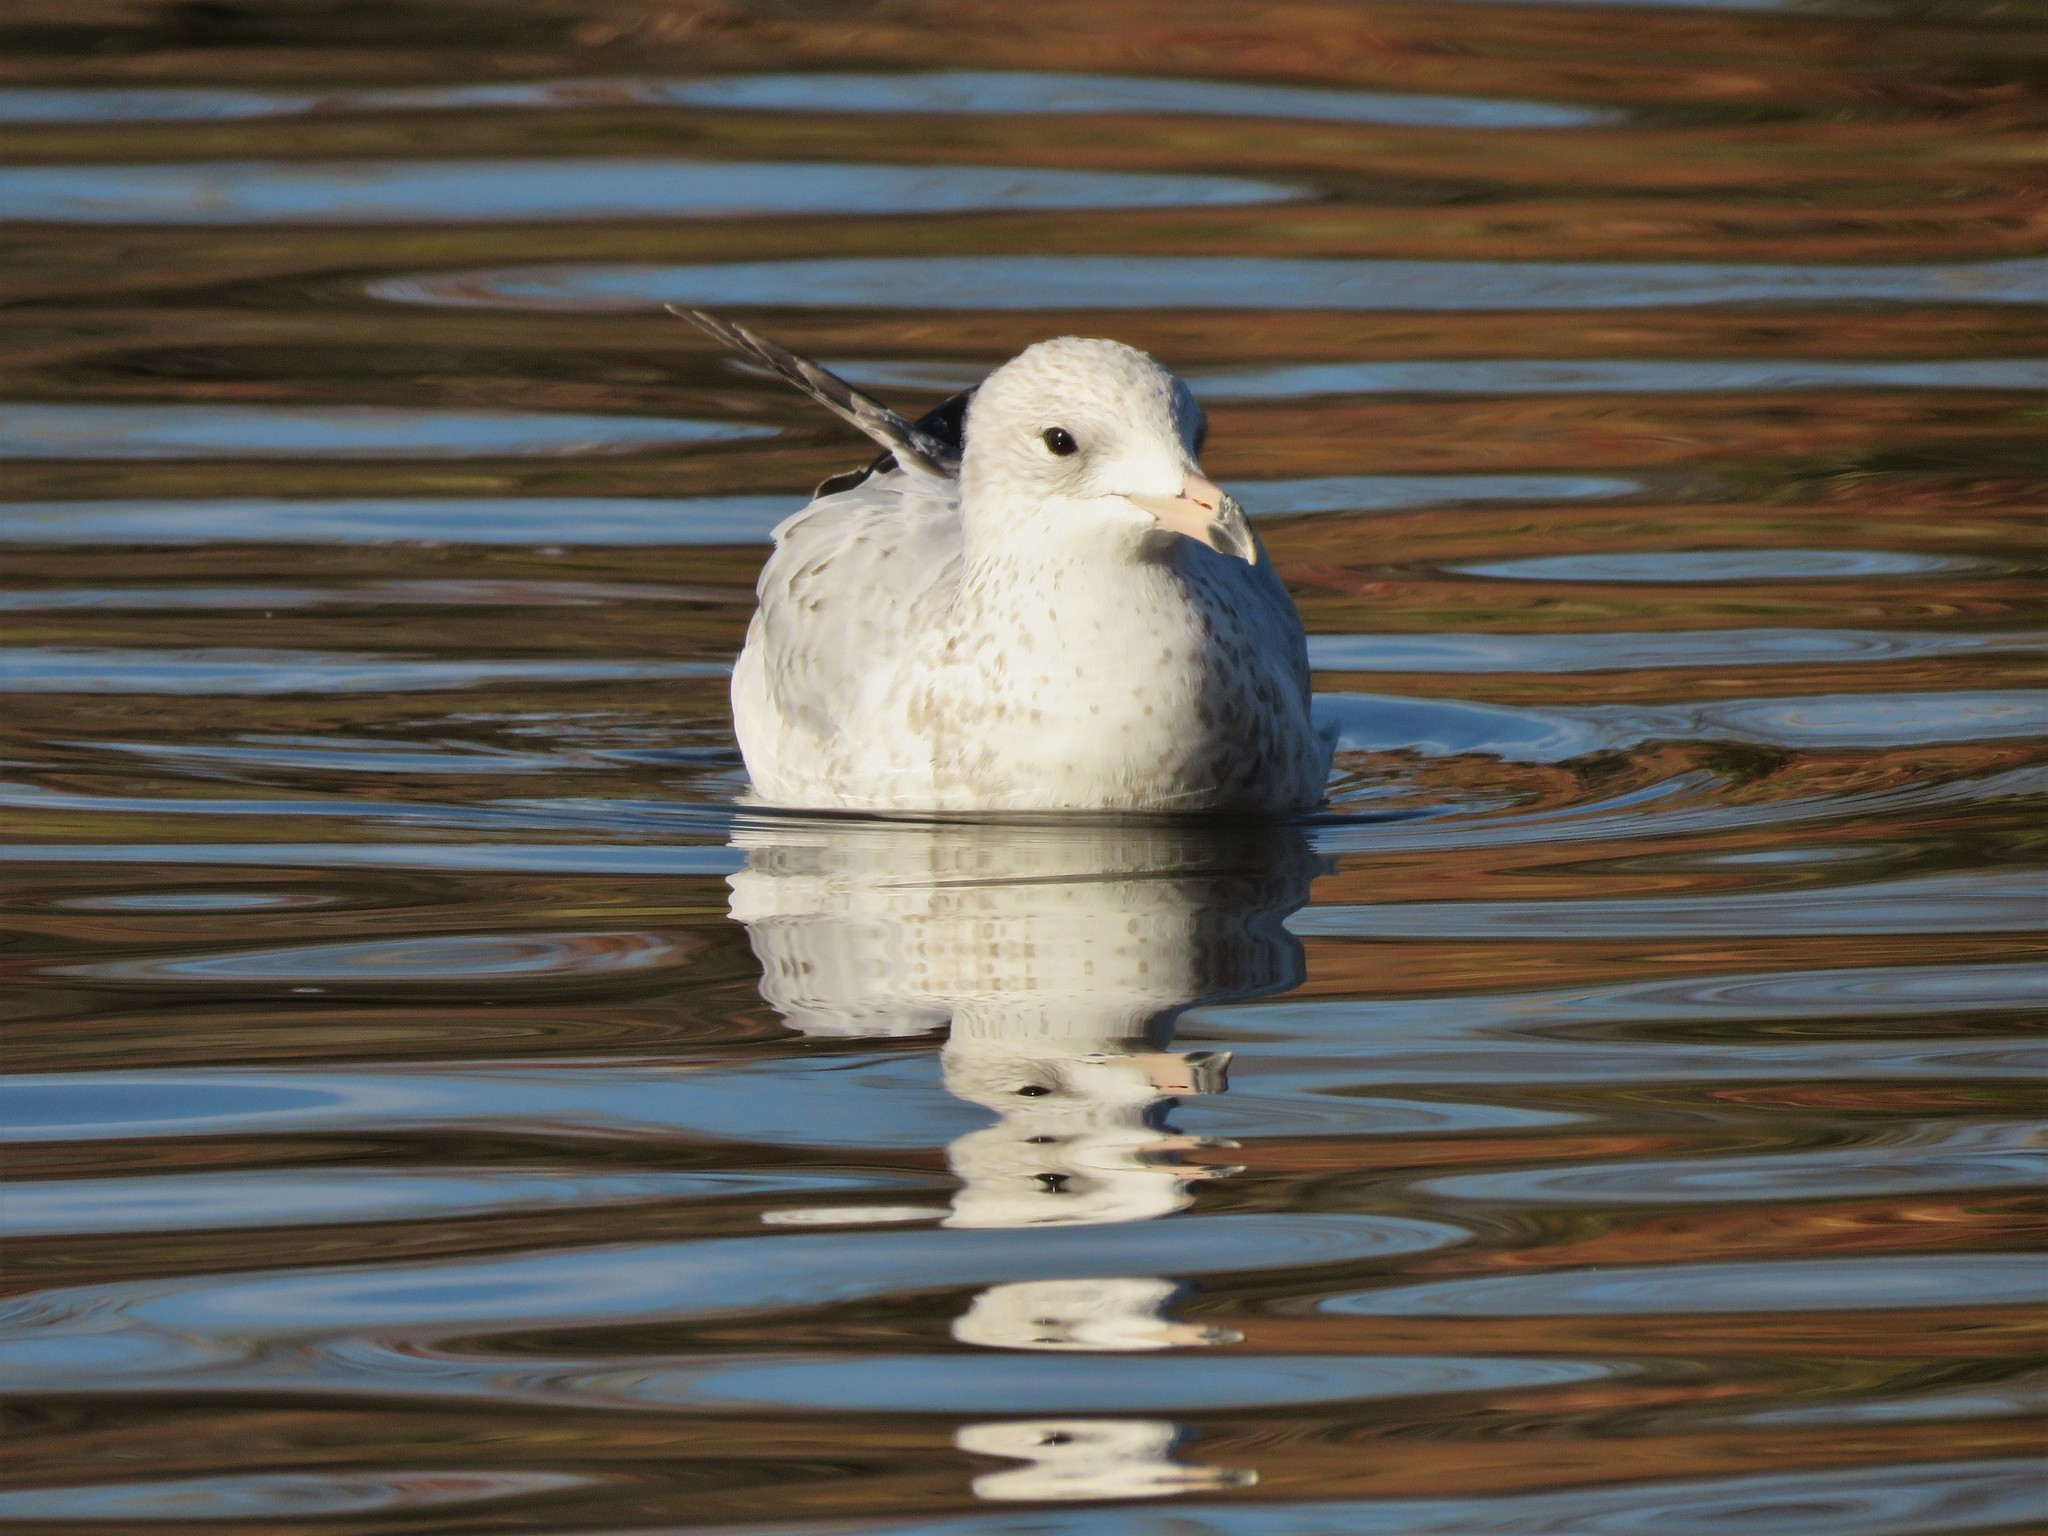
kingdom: Animalia
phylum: Chordata
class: Aves
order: Charadriiformes
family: Laridae
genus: Larus
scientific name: Larus delawarensis
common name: Ring-billed gull
